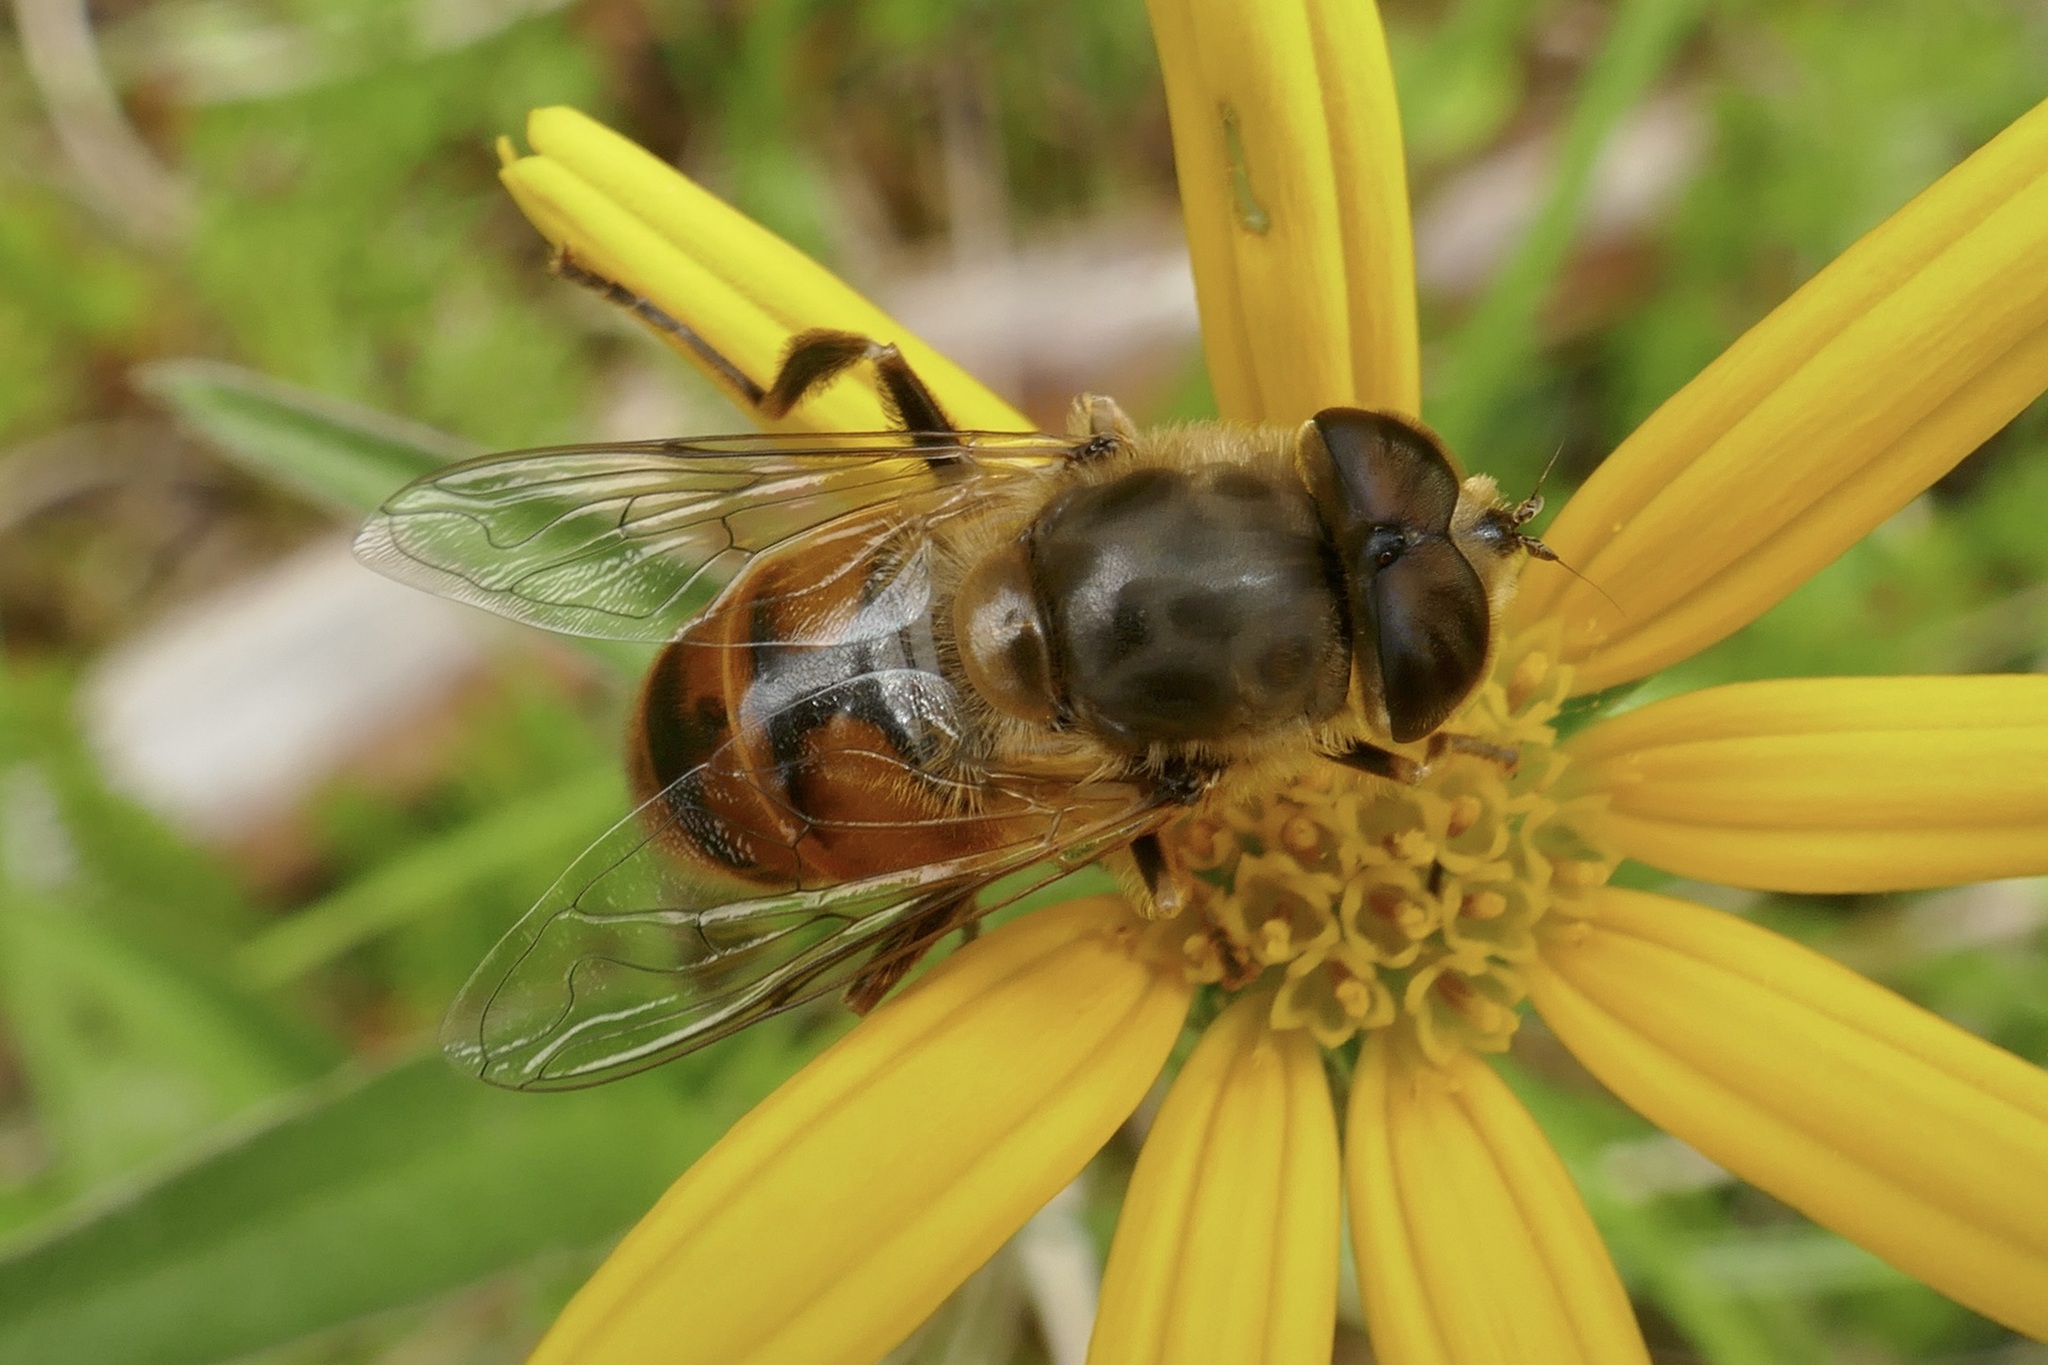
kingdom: Animalia
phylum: Arthropoda
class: Insecta
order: Diptera
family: Syrphidae
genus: Eristalis
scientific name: Eristalis tenax
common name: Drone fly
